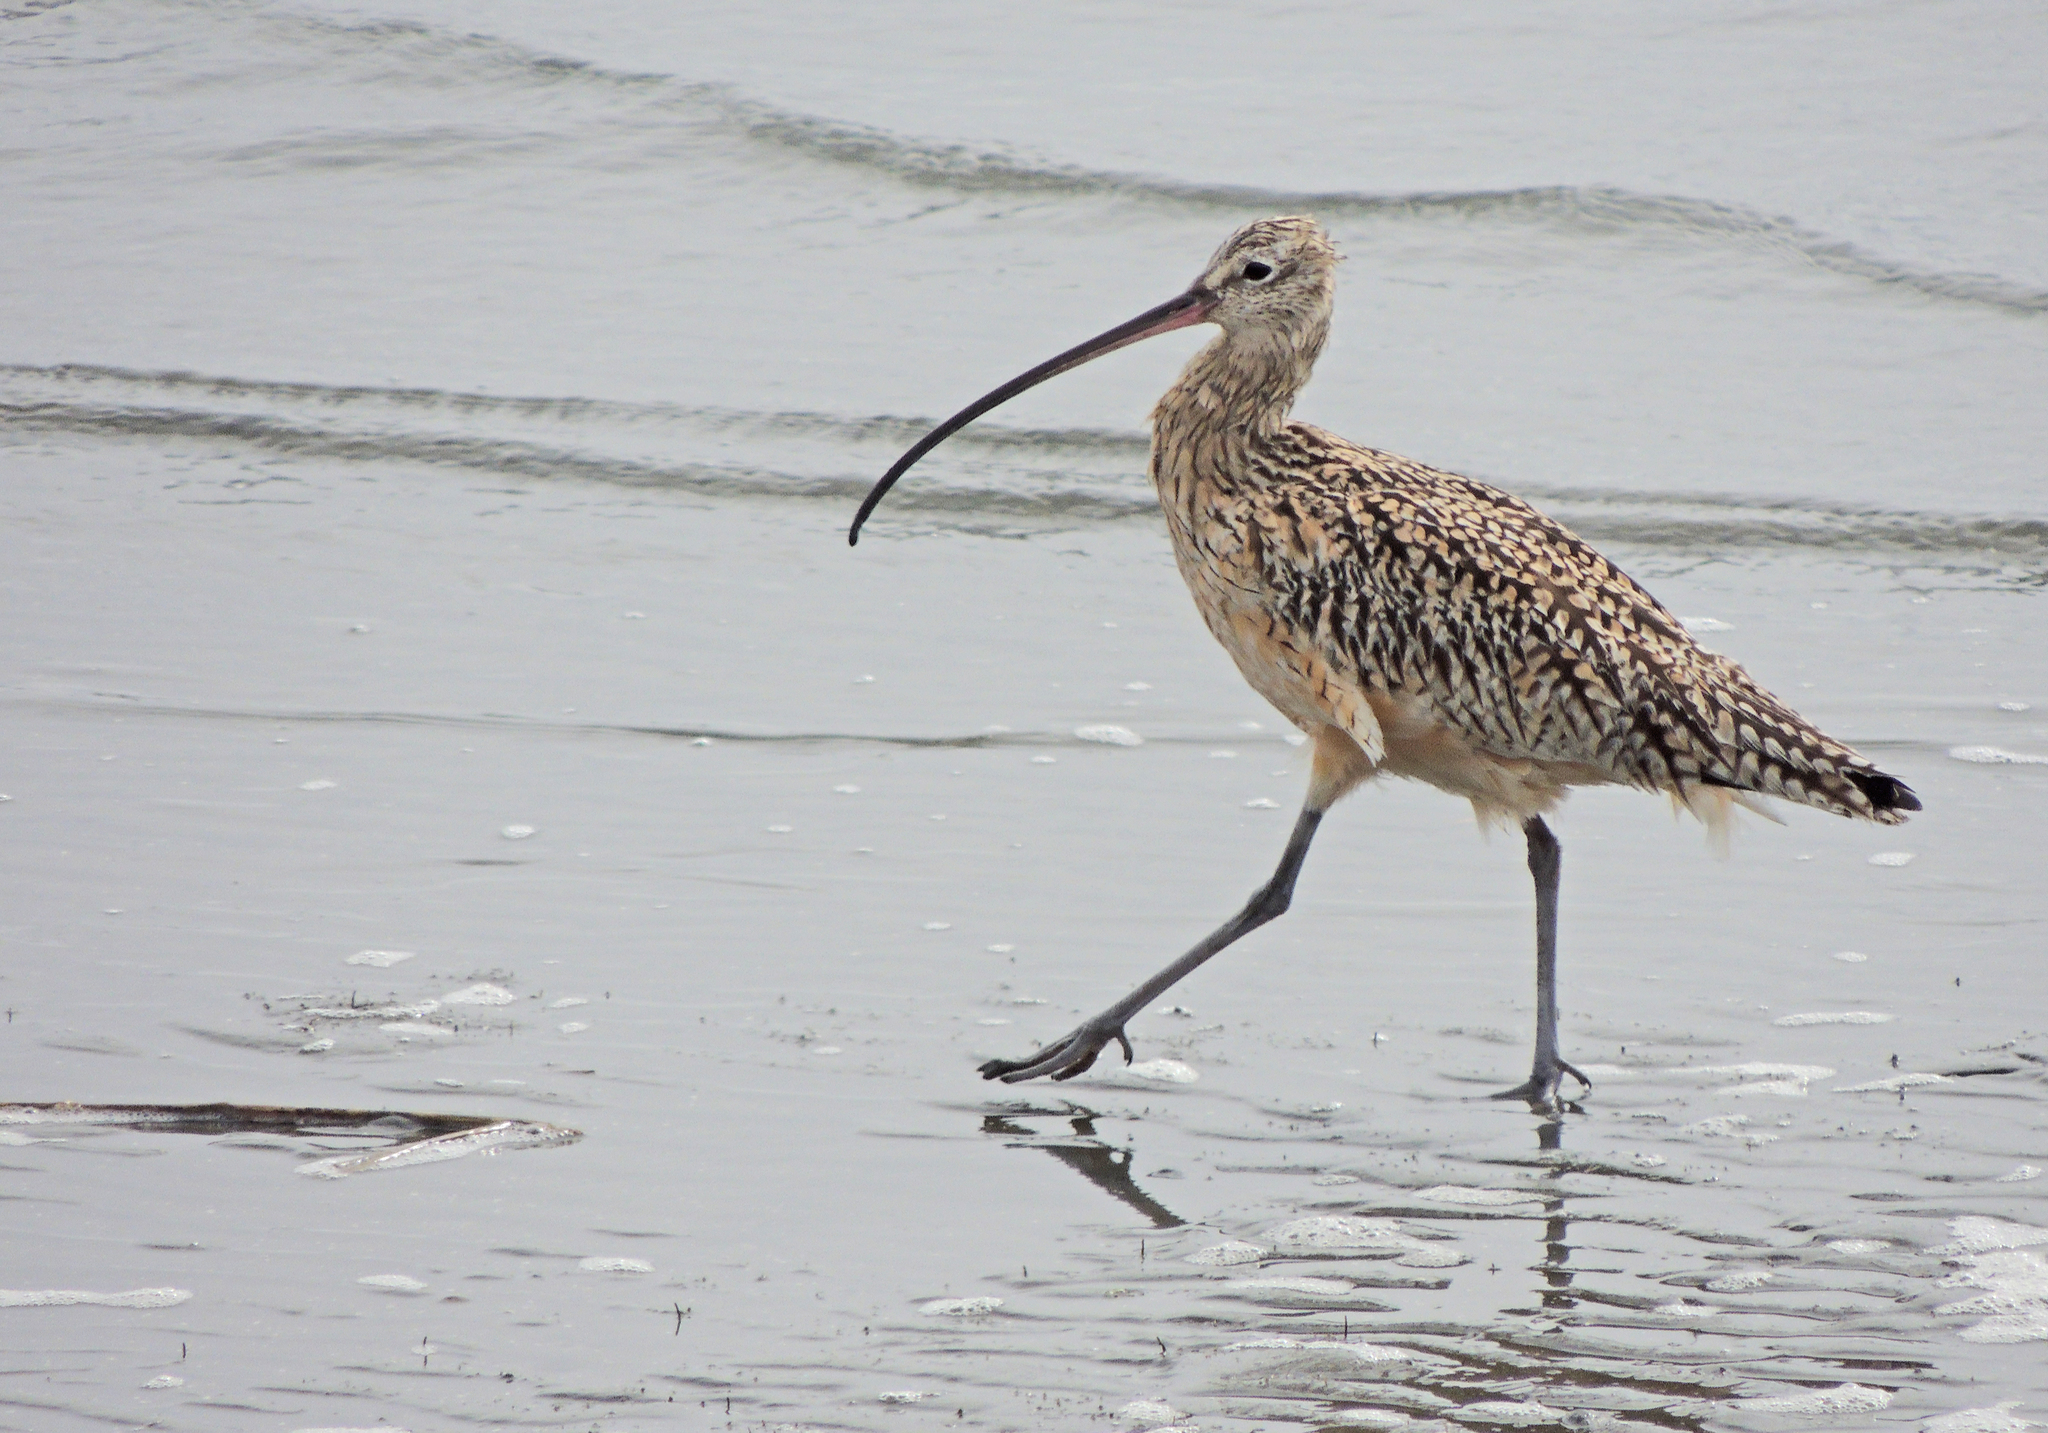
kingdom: Animalia
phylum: Chordata
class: Aves
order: Charadriiformes
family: Scolopacidae
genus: Numenius
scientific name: Numenius americanus
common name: Long-billed curlew
